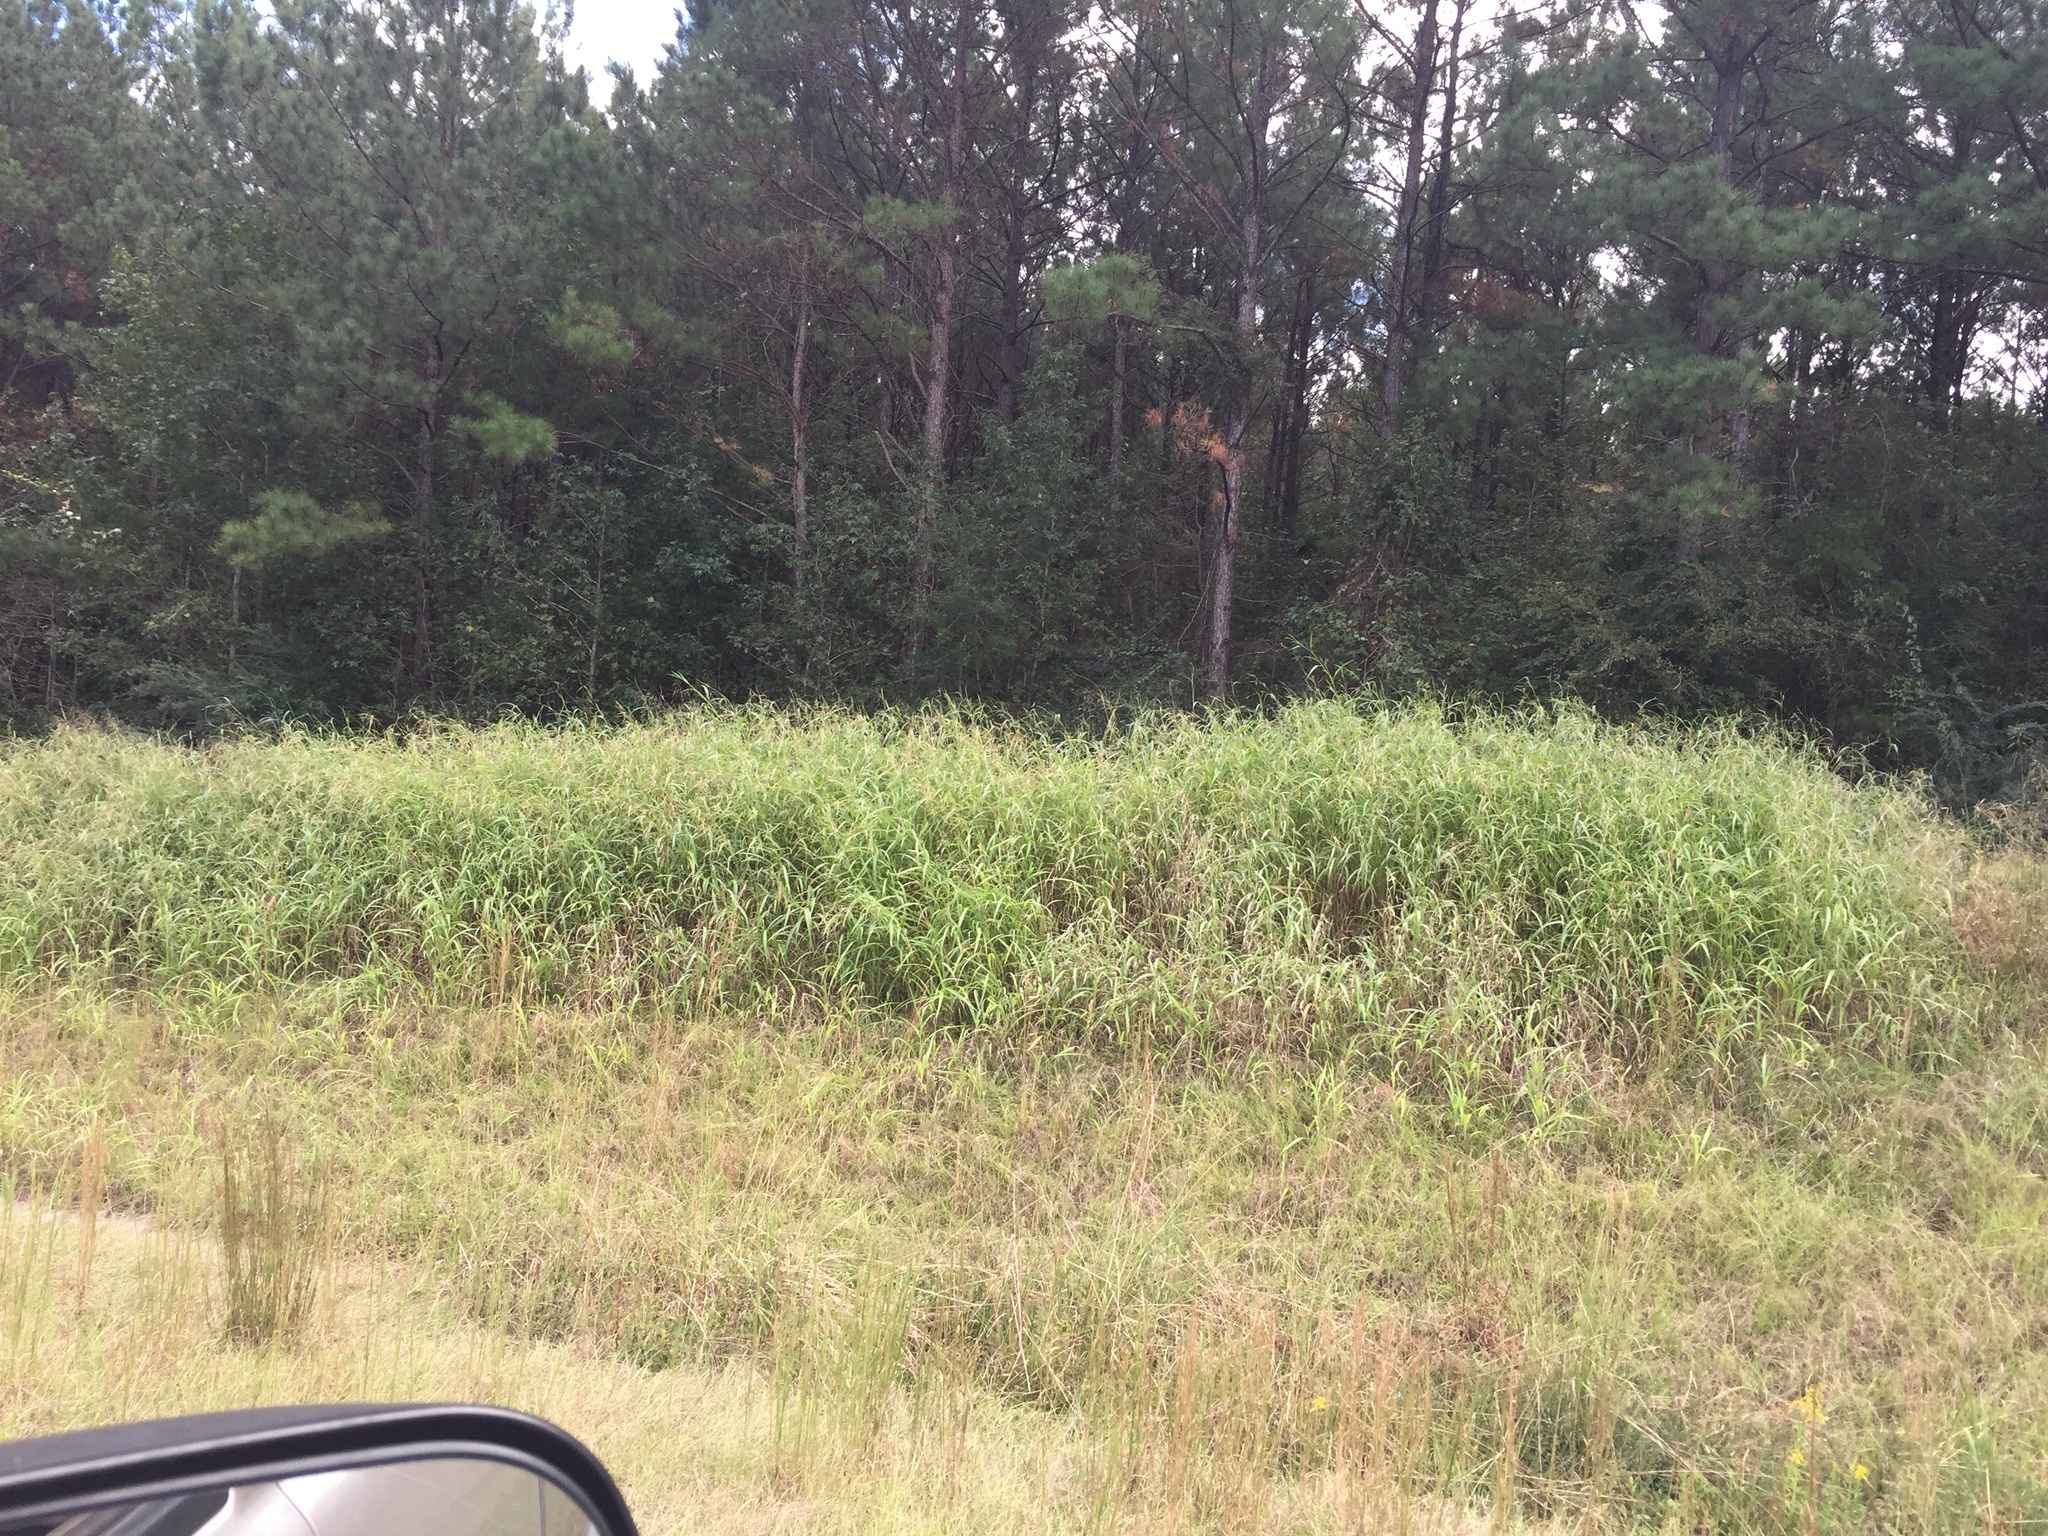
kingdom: Plantae
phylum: Tracheophyta
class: Liliopsida
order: Poales
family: Poaceae
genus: Rottboellia
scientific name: Rottboellia cochinchinensis
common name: Itchgrass
